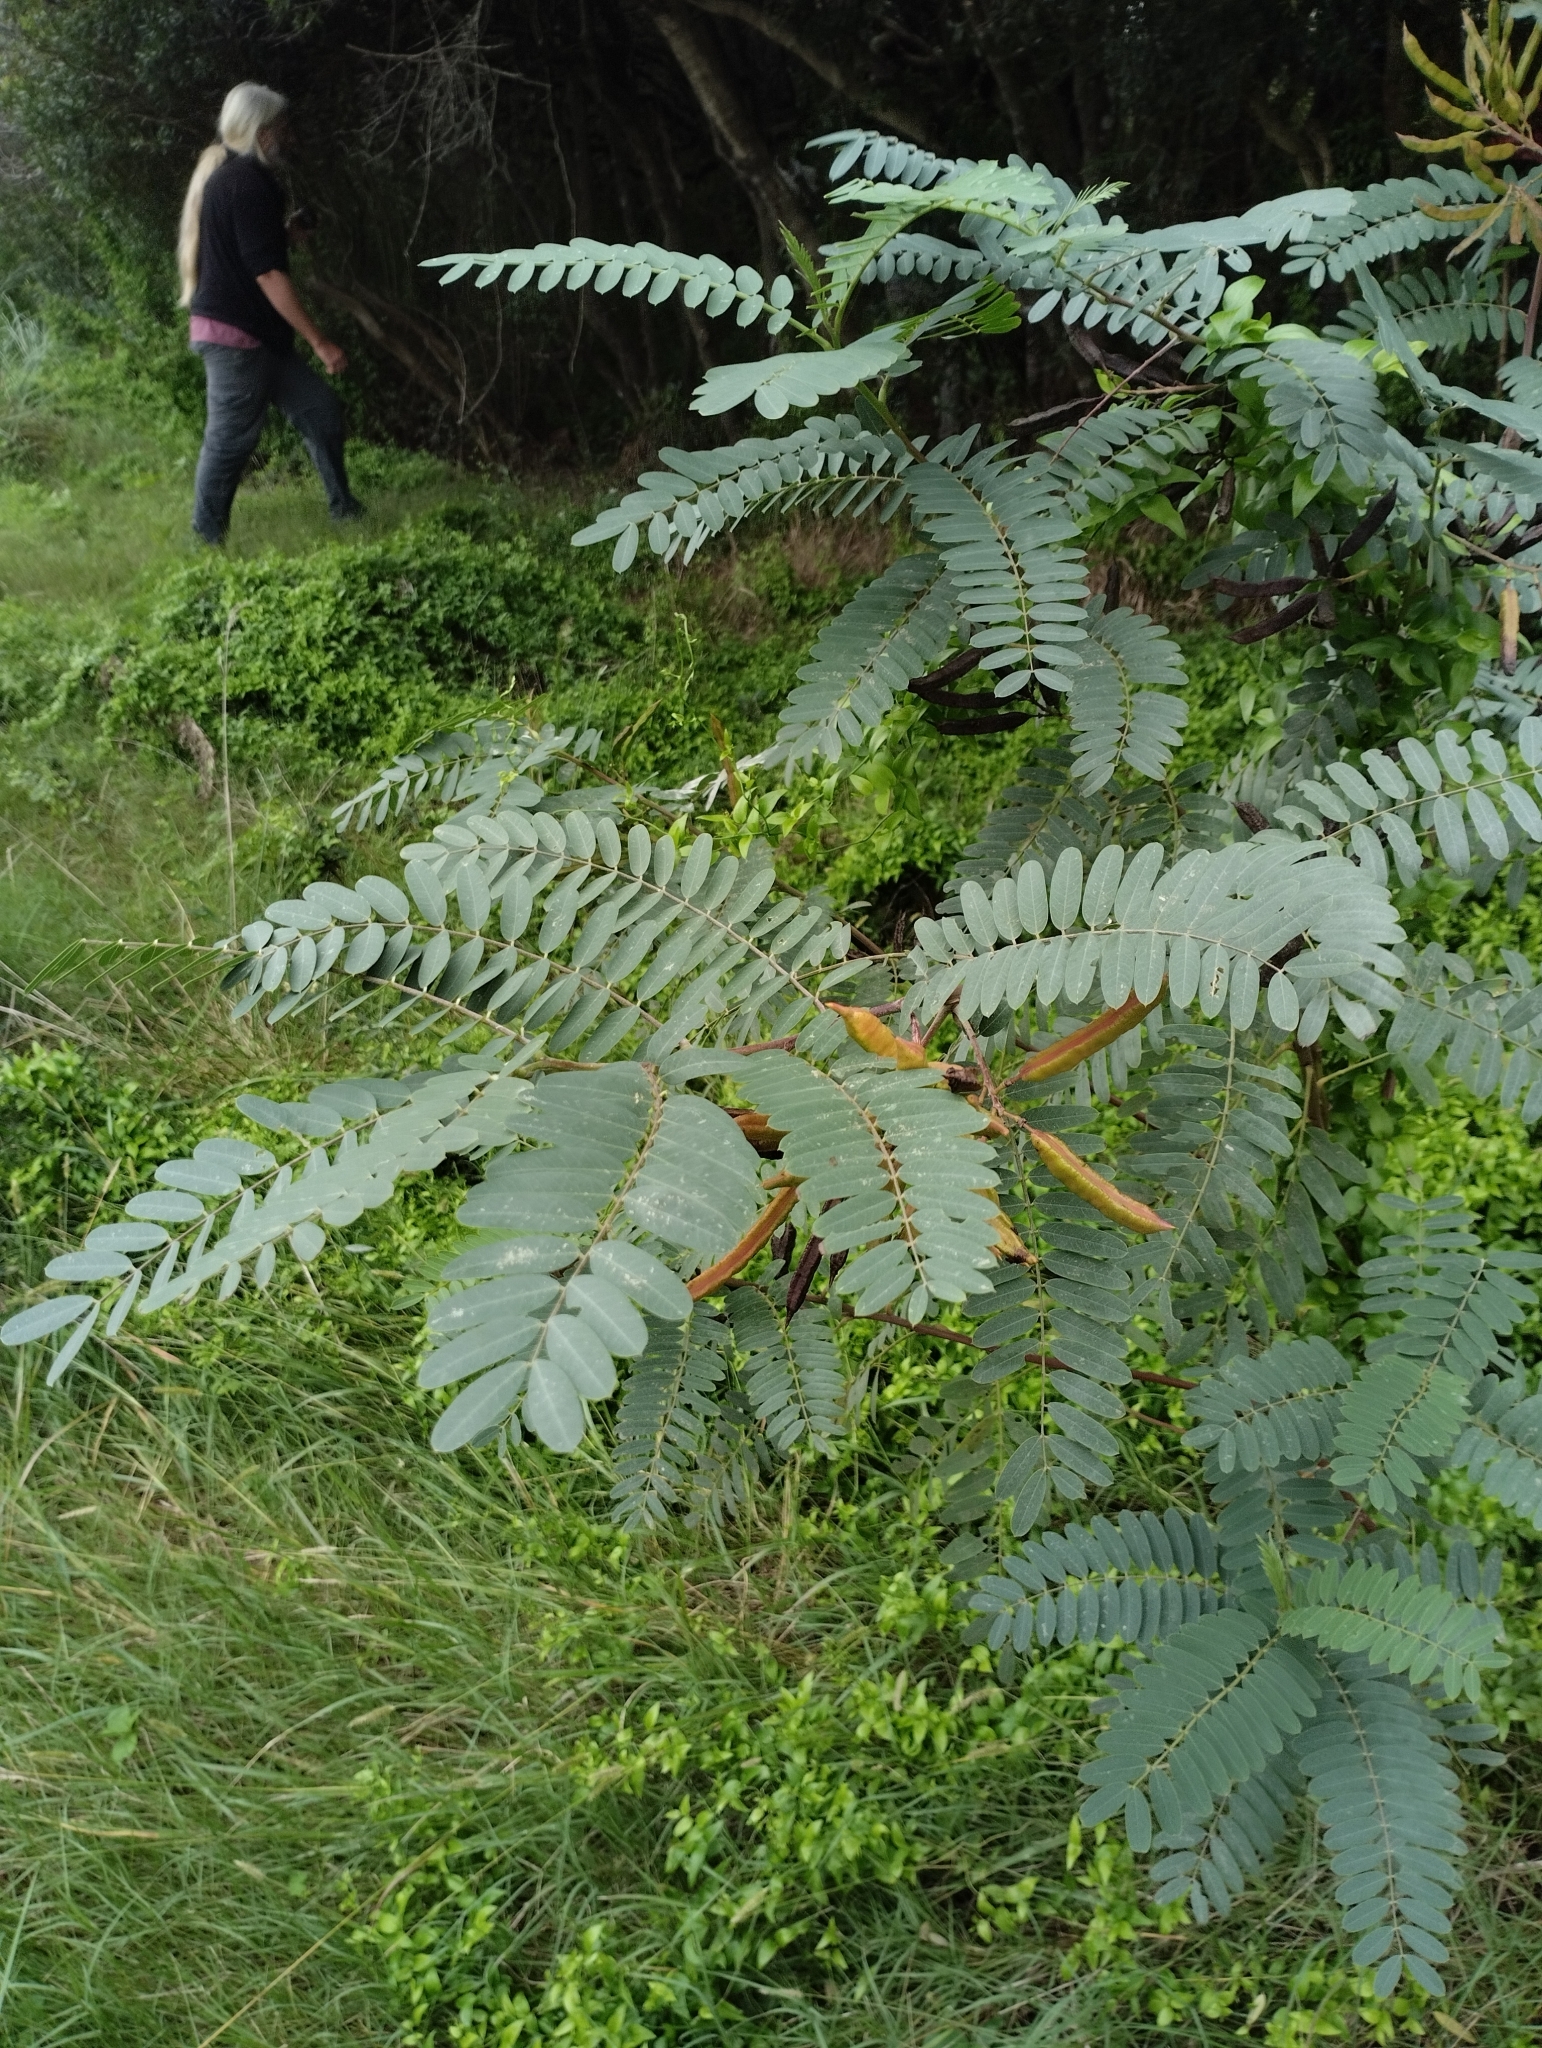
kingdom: Plantae
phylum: Tracheophyta
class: Magnoliopsida
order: Fabales
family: Fabaceae
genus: Sesbania
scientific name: Sesbania virgata
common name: Wand riverhemp
